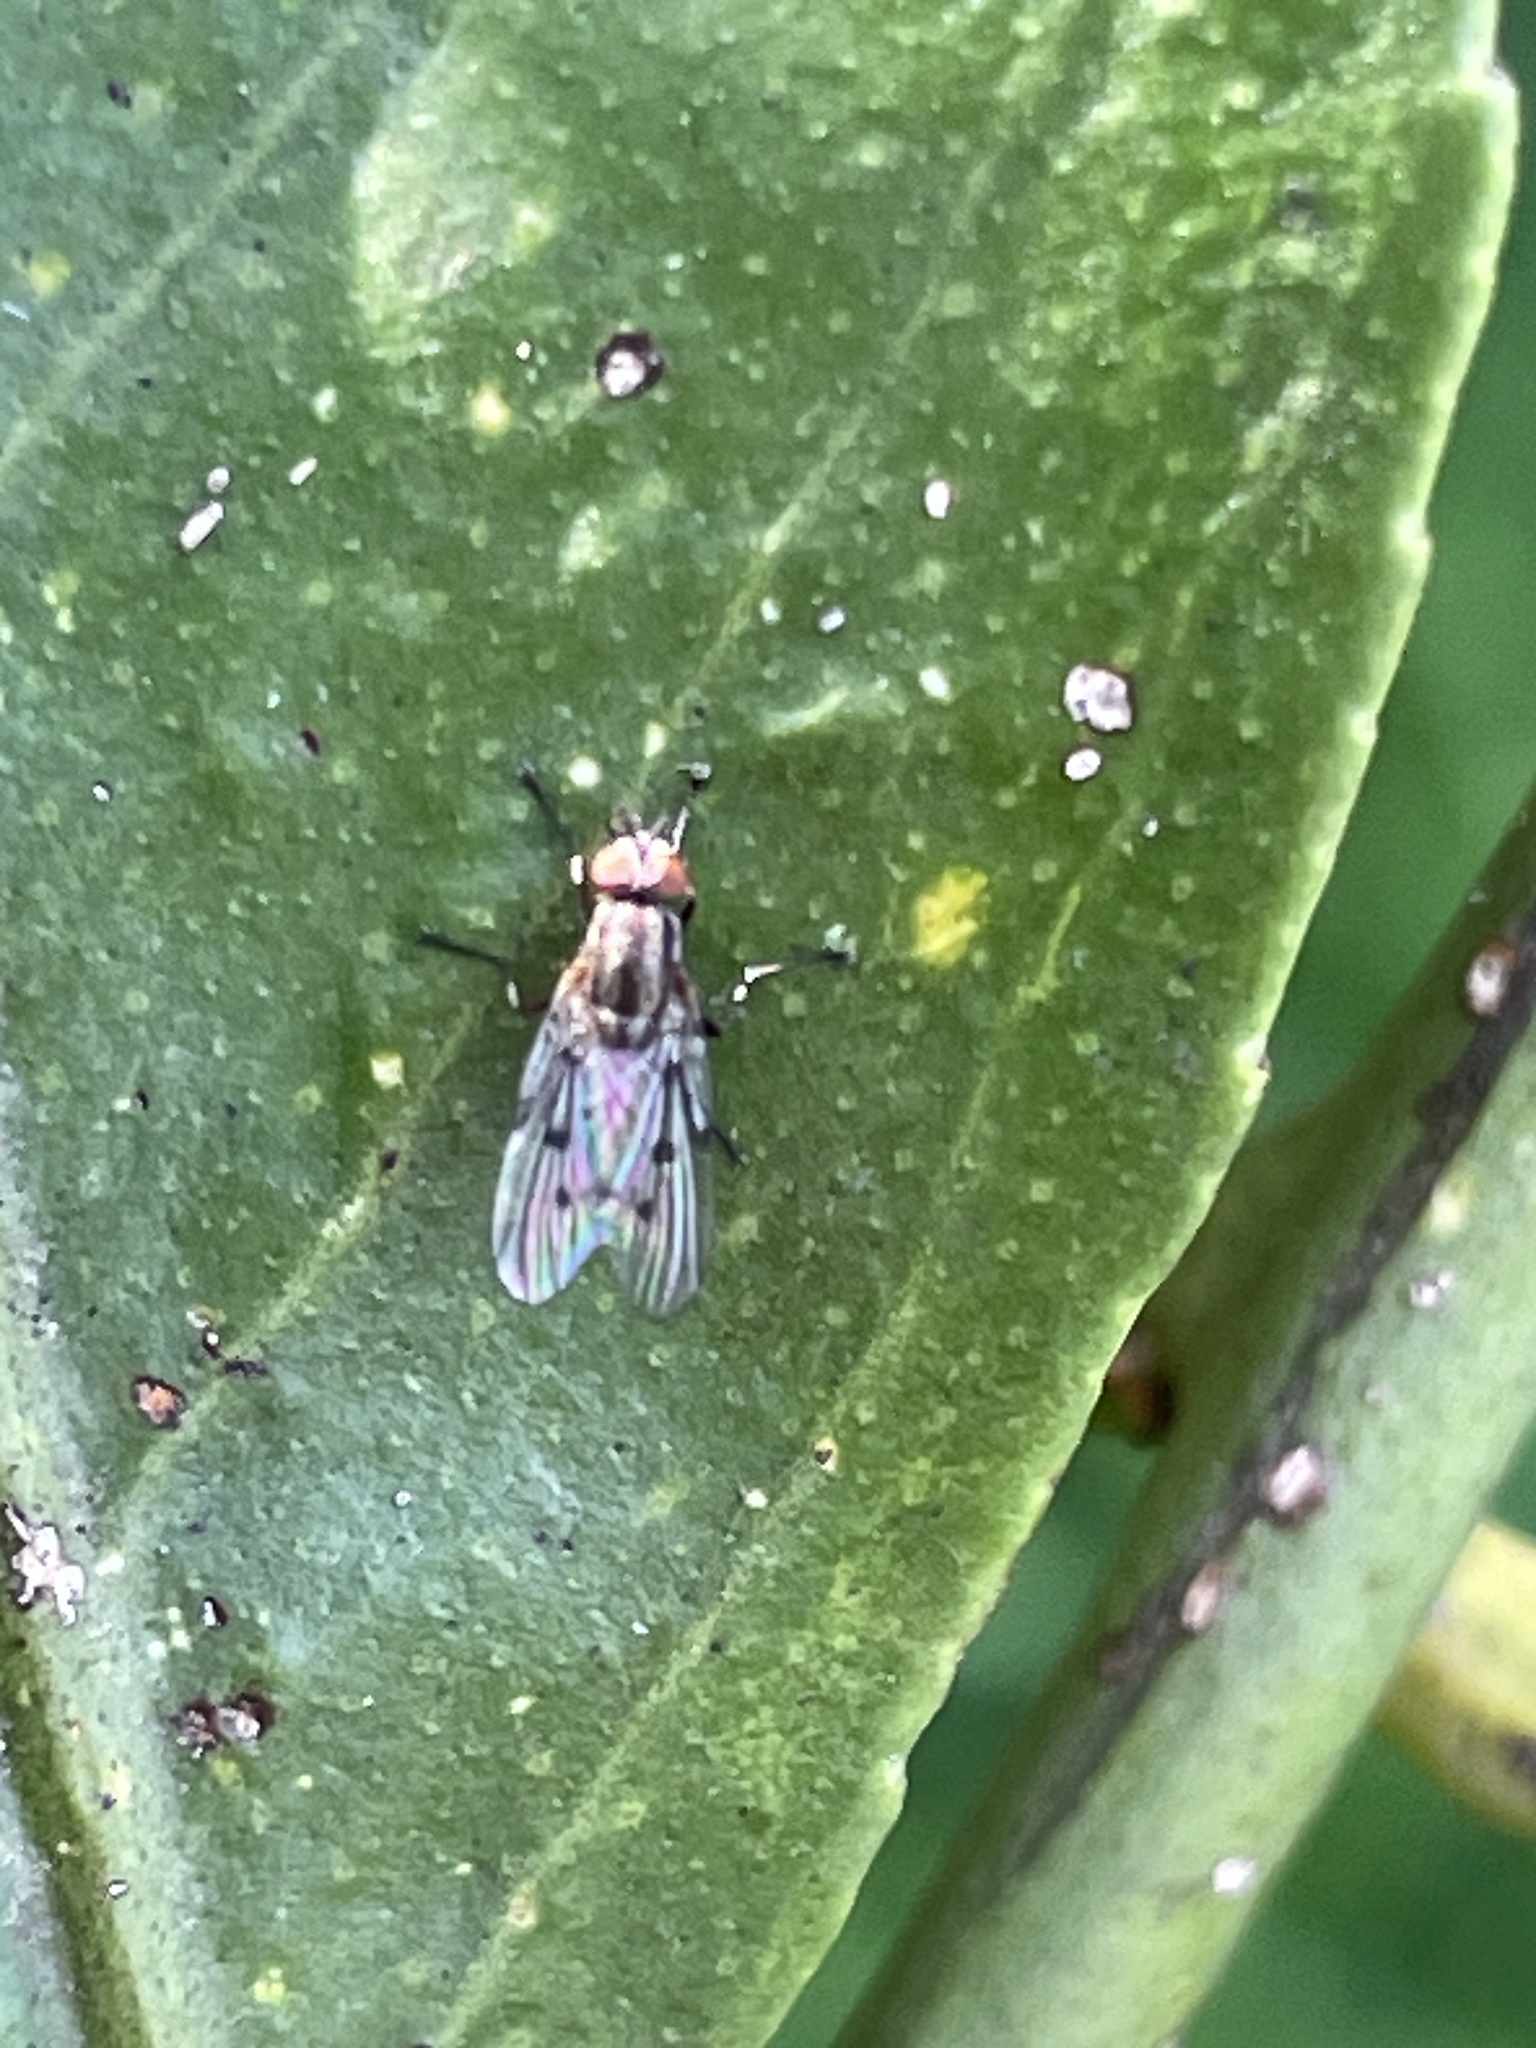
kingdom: Animalia
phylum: Arthropoda
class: Insecta
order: Diptera
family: Anthomyiidae
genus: Anthomyia
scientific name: Anthomyia punctipennis
